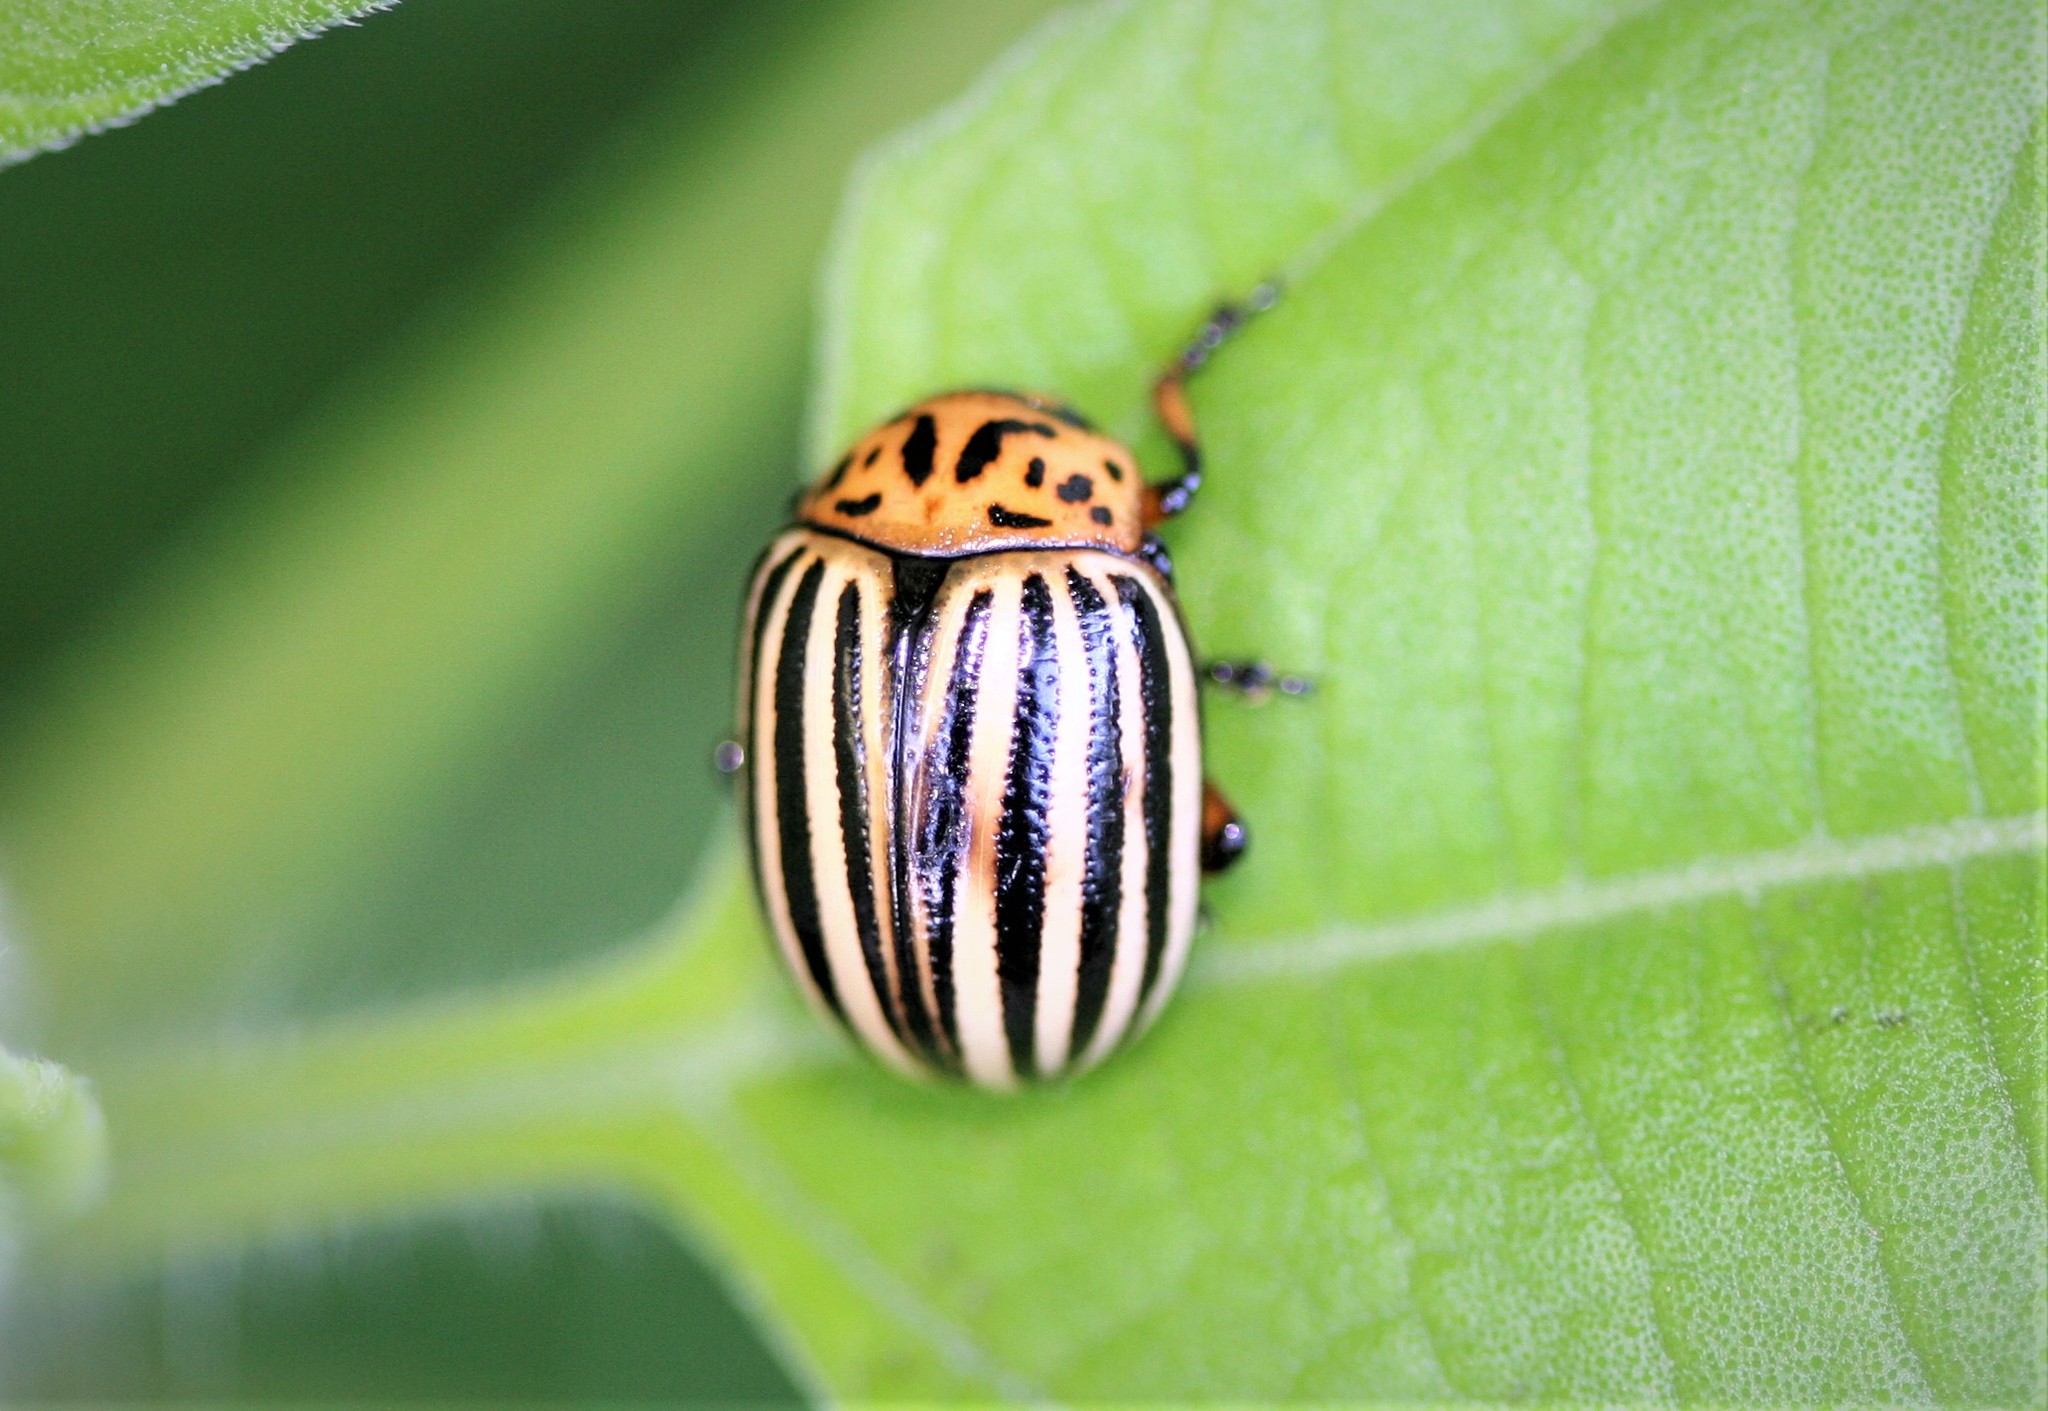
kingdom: Animalia
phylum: Arthropoda
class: Insecta
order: Coleoptera
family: Chrysomelidae
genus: Leptinotarsa
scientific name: Leptinotarsa decemlineata
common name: Colorado potato beetle
